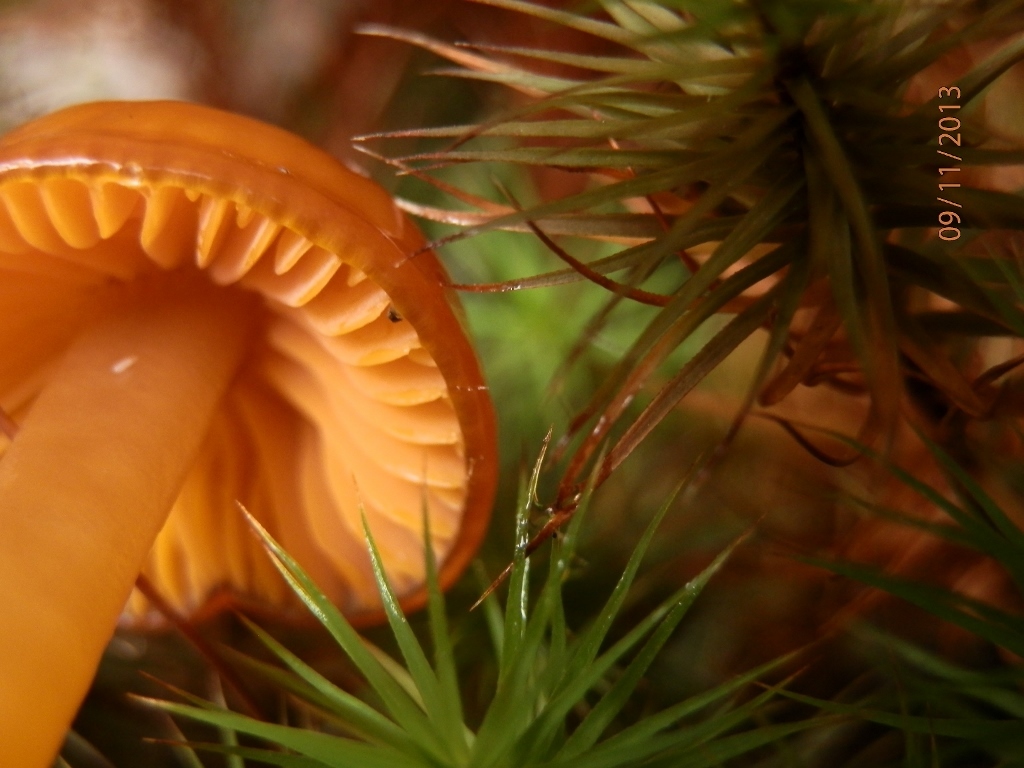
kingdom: Fungi
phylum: Basidiomycota
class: Agaricomycetes
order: Agaricales
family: Hygrophoraceae
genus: Gliophorus
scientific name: Gliophorus laetus
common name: Heath waxcap
